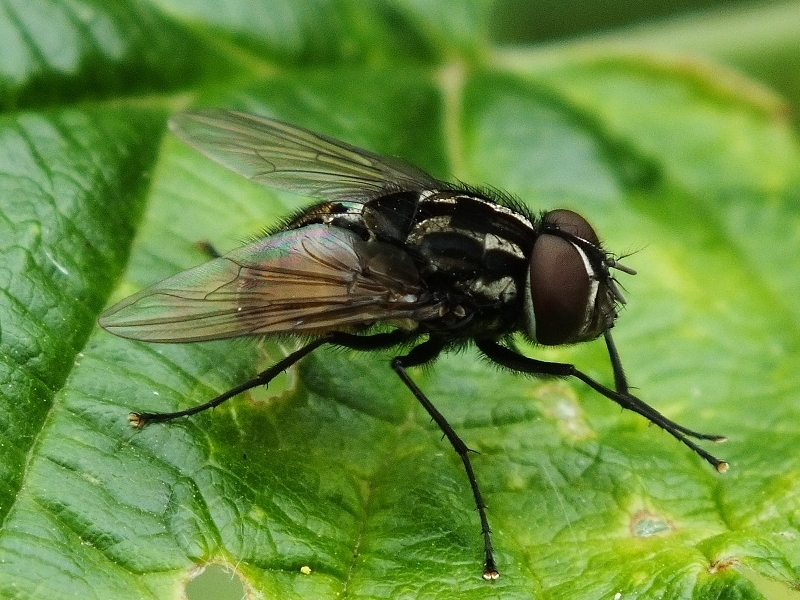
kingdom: Animalia
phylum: Arthropoda
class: Insecta
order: Diptera
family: Muscidae
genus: Graphomya
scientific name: Graphomya maculata
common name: Muscid fly
